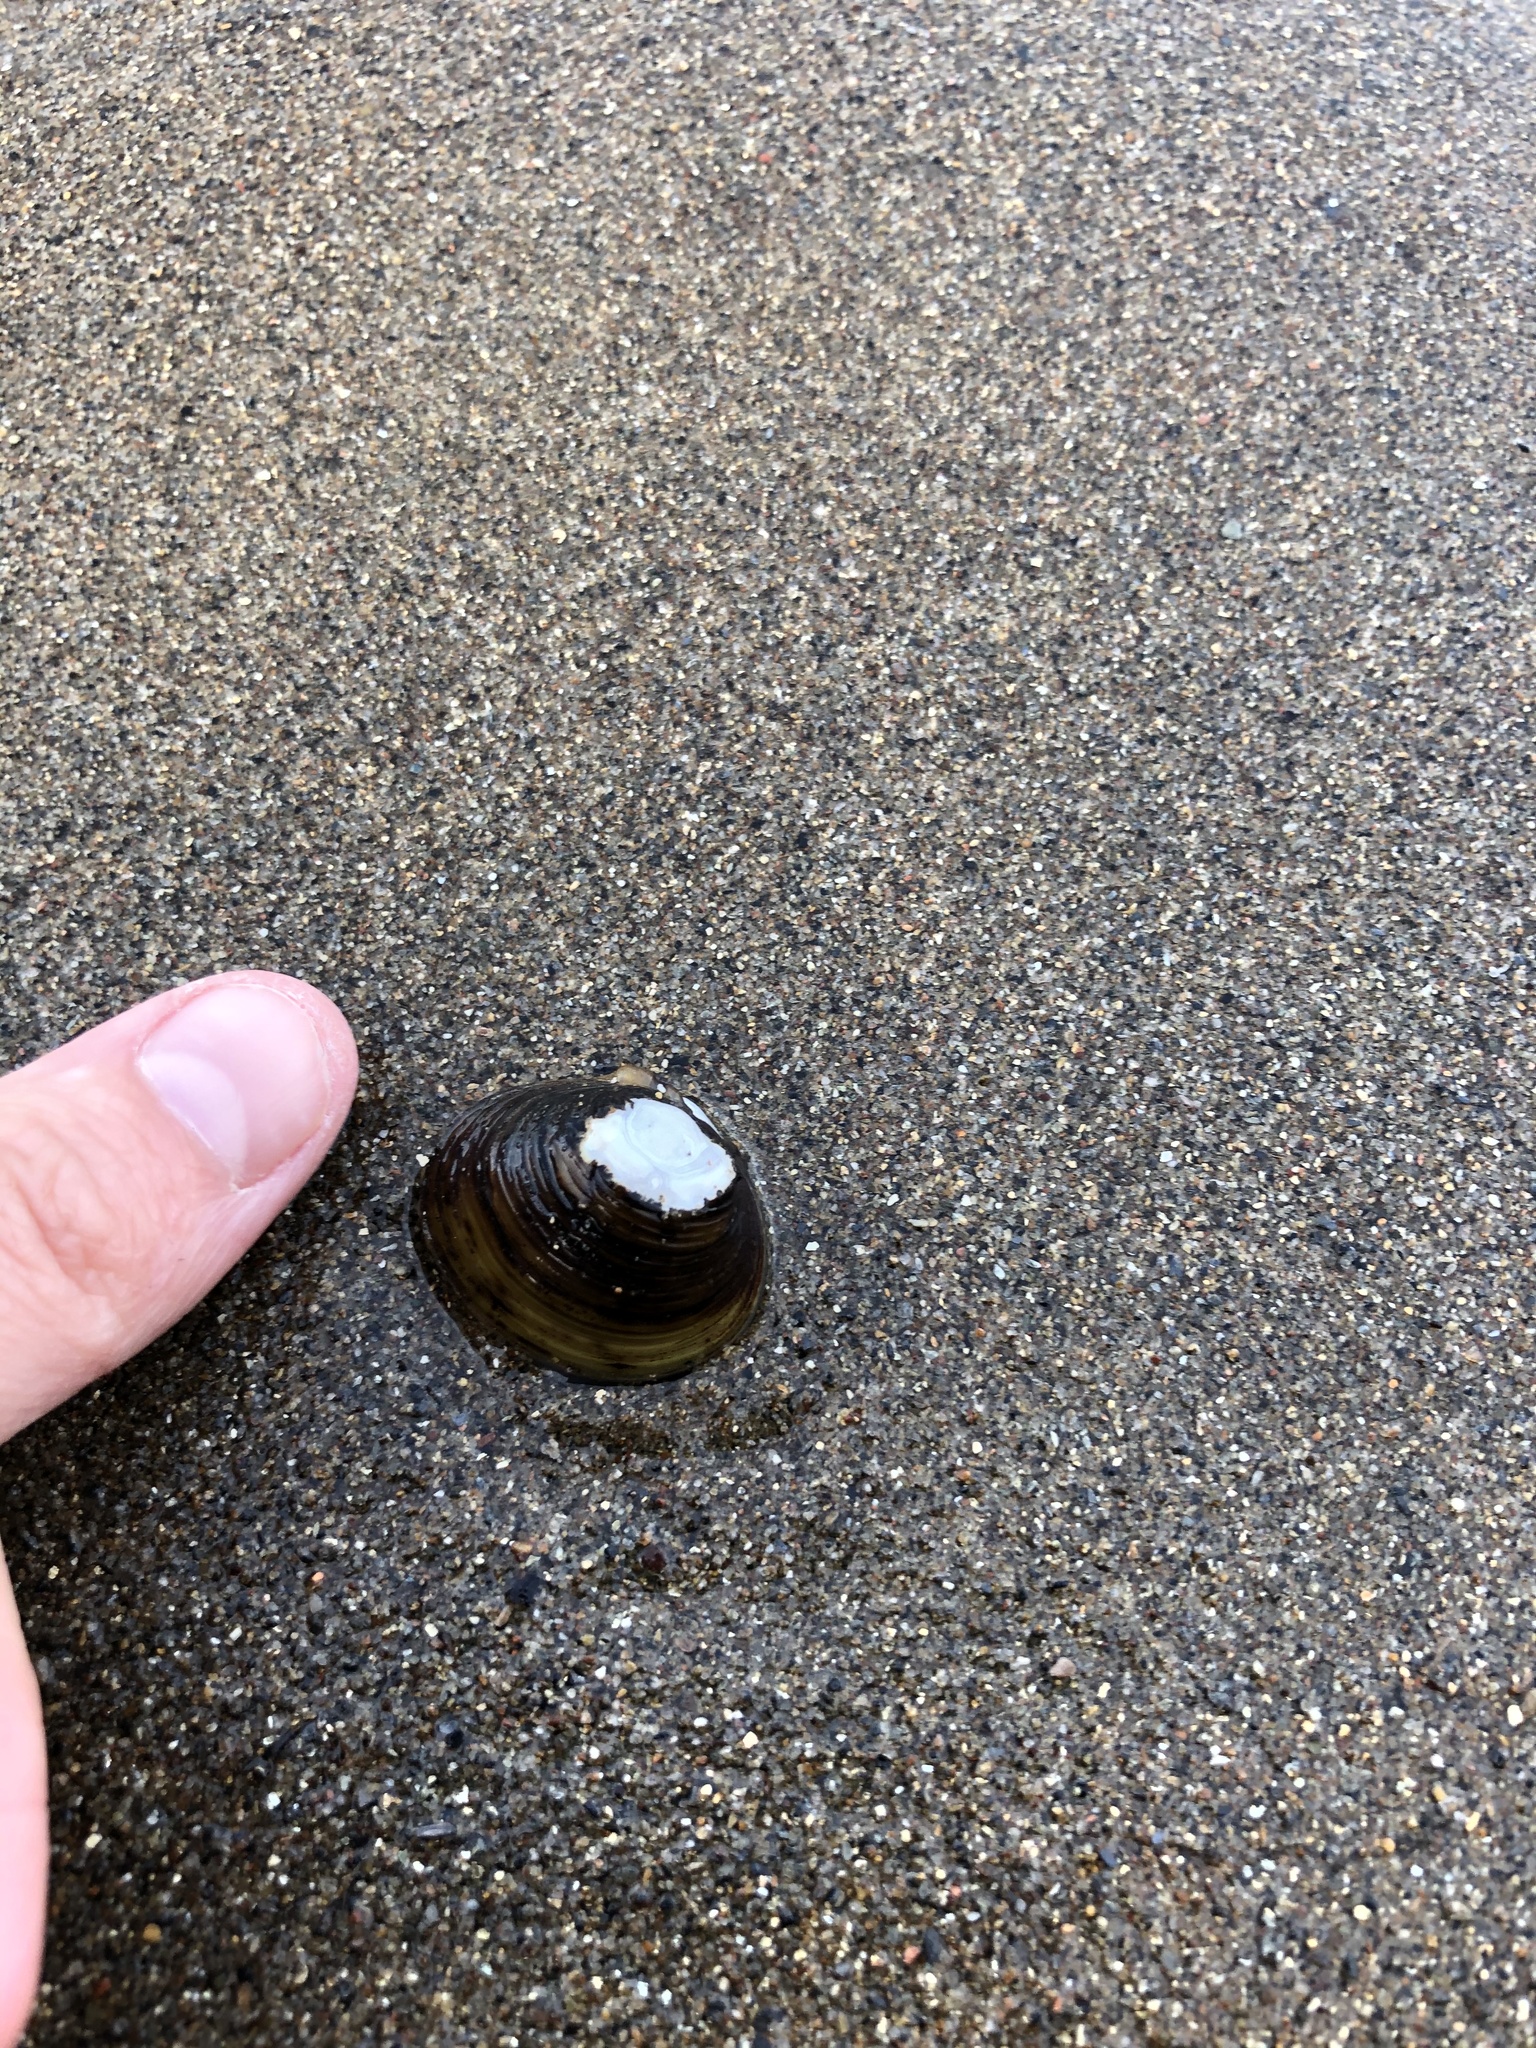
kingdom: Animalia
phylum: Mollusca
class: Bivalvia
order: Venerida
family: Cyrenidae
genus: Corbicula
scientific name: Corbicula fluminea
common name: Asian clam
